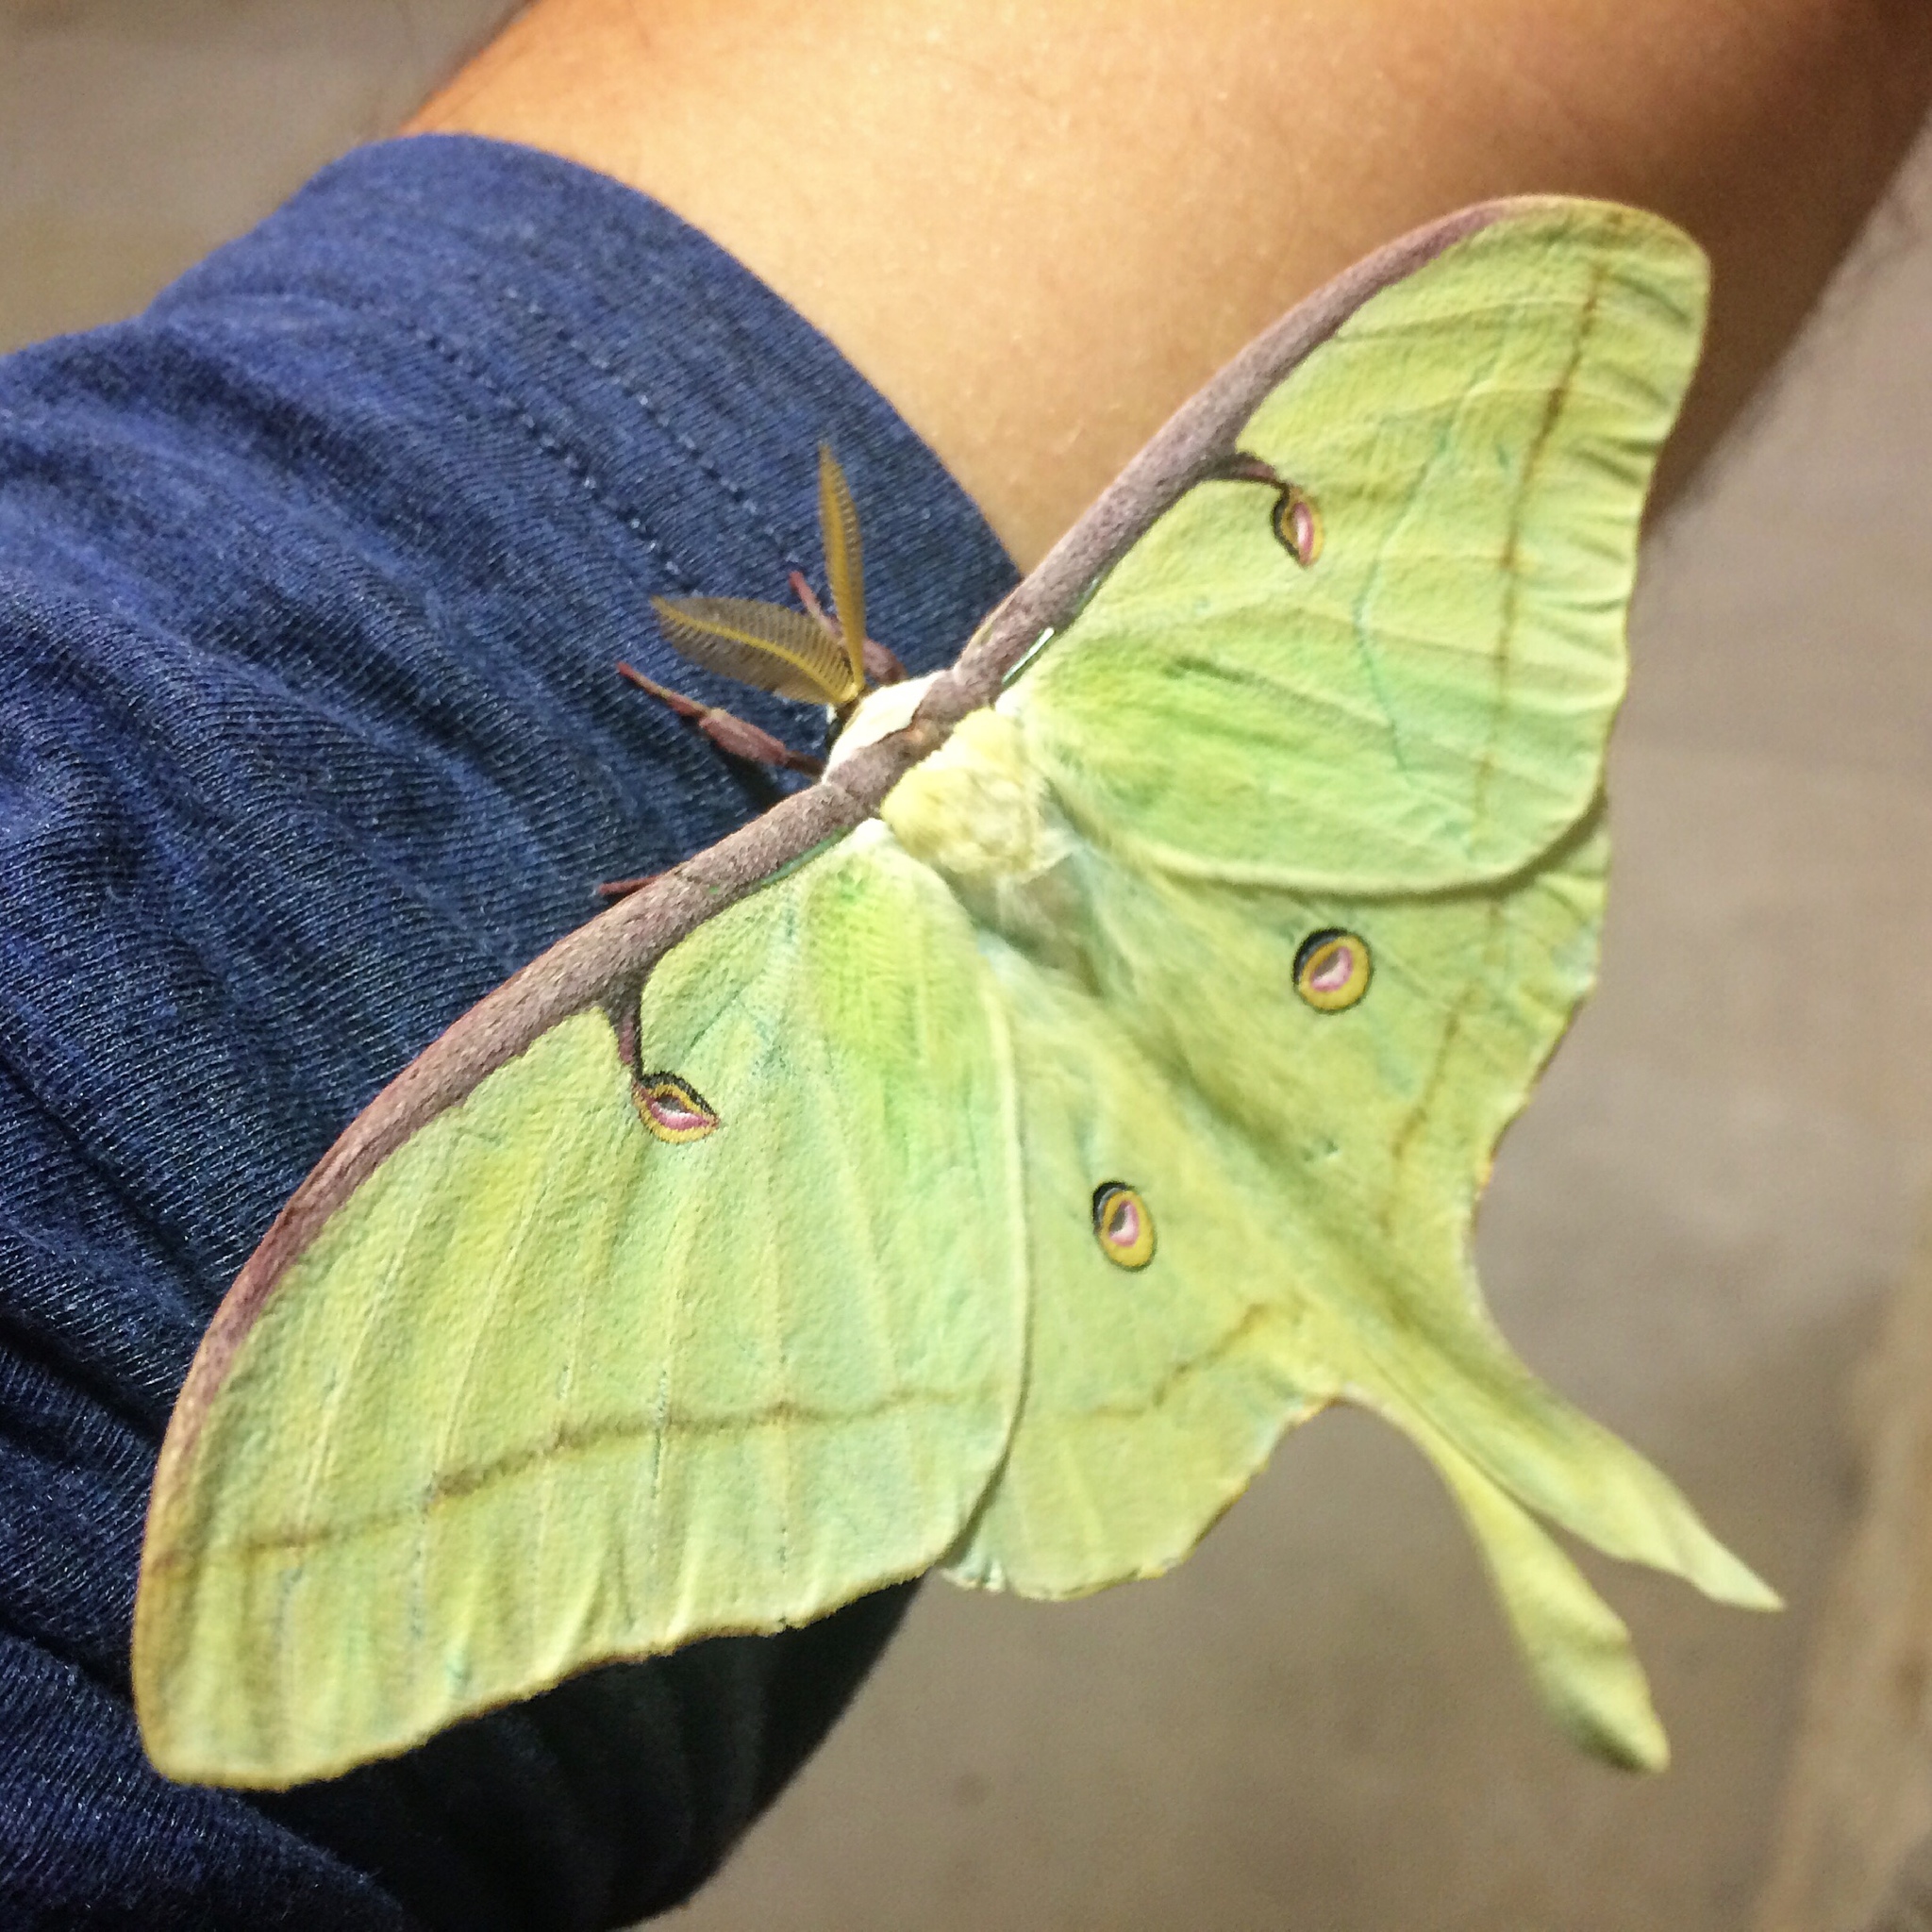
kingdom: Animalia
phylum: Arthropoda
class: Insecta
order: Lepidoptera
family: Saturniidae
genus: Actias
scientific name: Actias luna
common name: Luna moth
